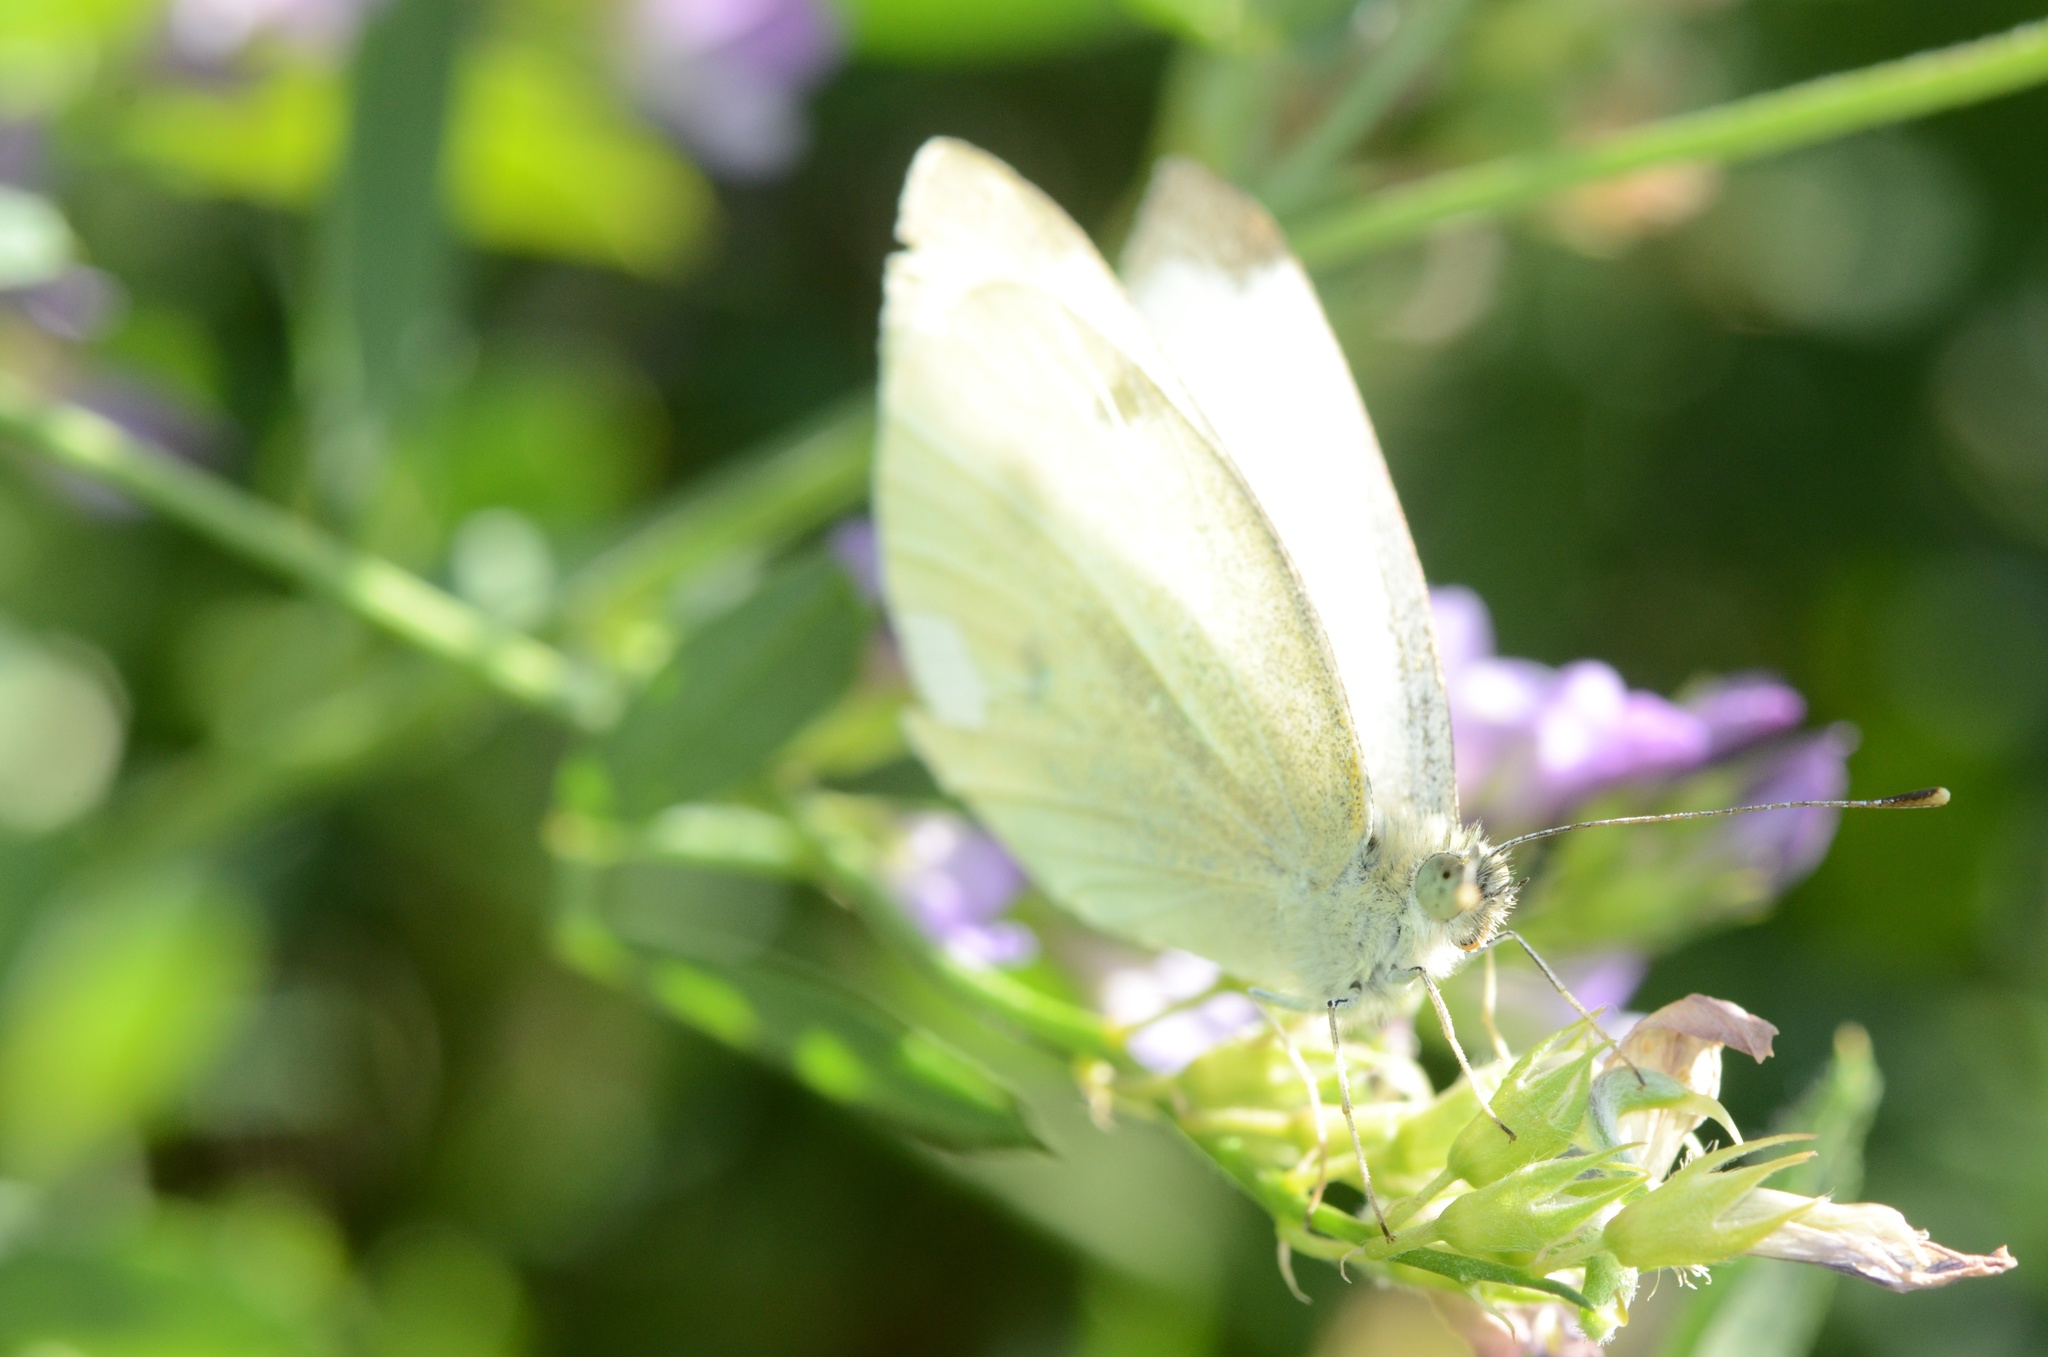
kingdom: Animalia
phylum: Arthropoda
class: Insecta
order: Lepidoptera
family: Pieridae
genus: Pieris
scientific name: Pieris rapae
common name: Small white
